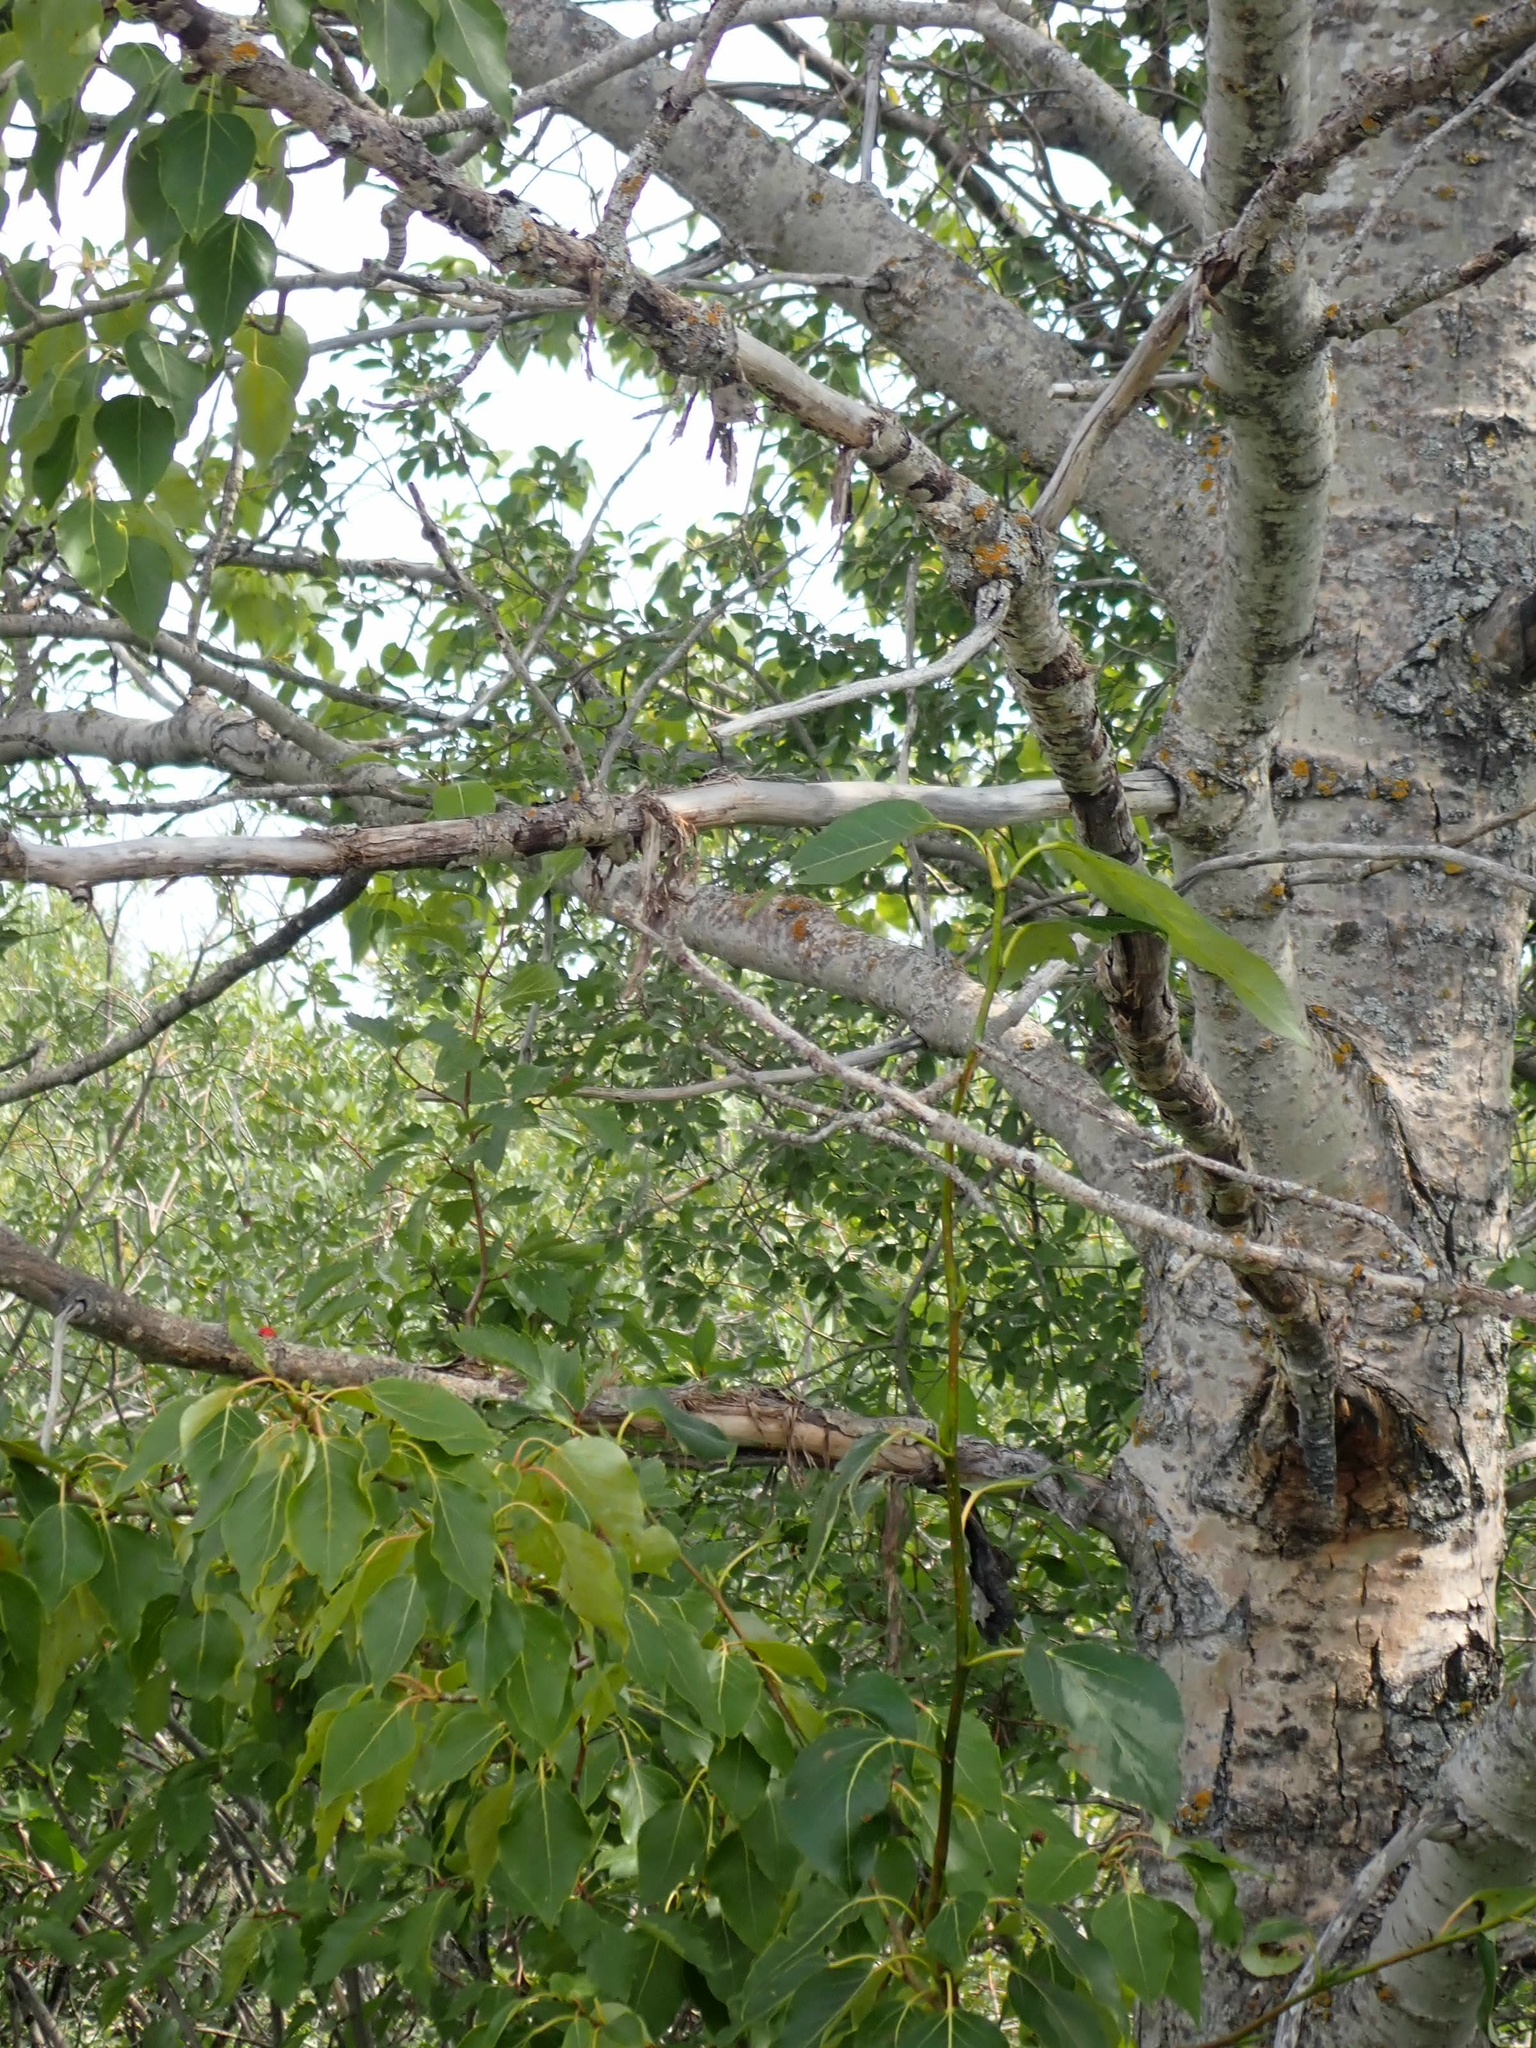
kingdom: Plantae
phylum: Tracheophyta
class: Magnoliopsida
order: Malpighiales
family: Salicaceae
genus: Populus
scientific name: Populus balsamifera
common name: Balsam poplar
